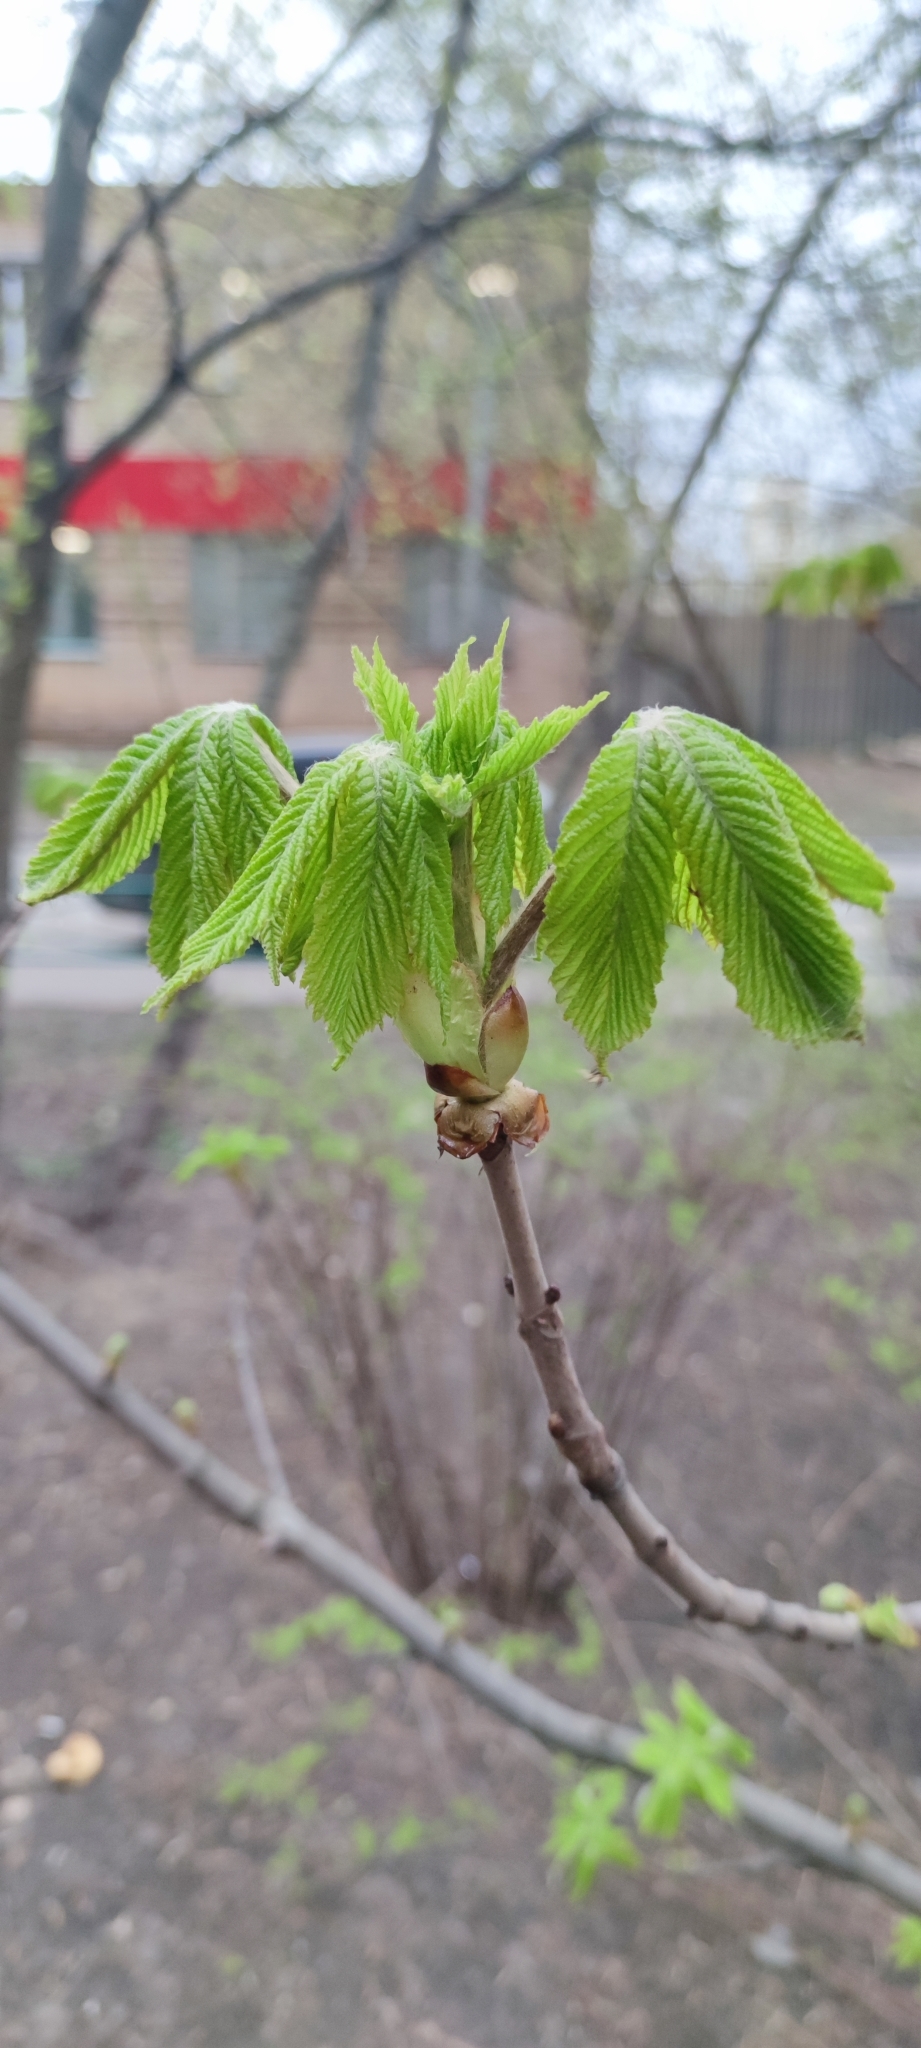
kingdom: Plantae
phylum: Tracheophyta
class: Magnoliopsida
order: Sapindales
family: Sapindaceae
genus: Aesculus
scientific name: Aesculus hippocastanum
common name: Horse-chestnut
